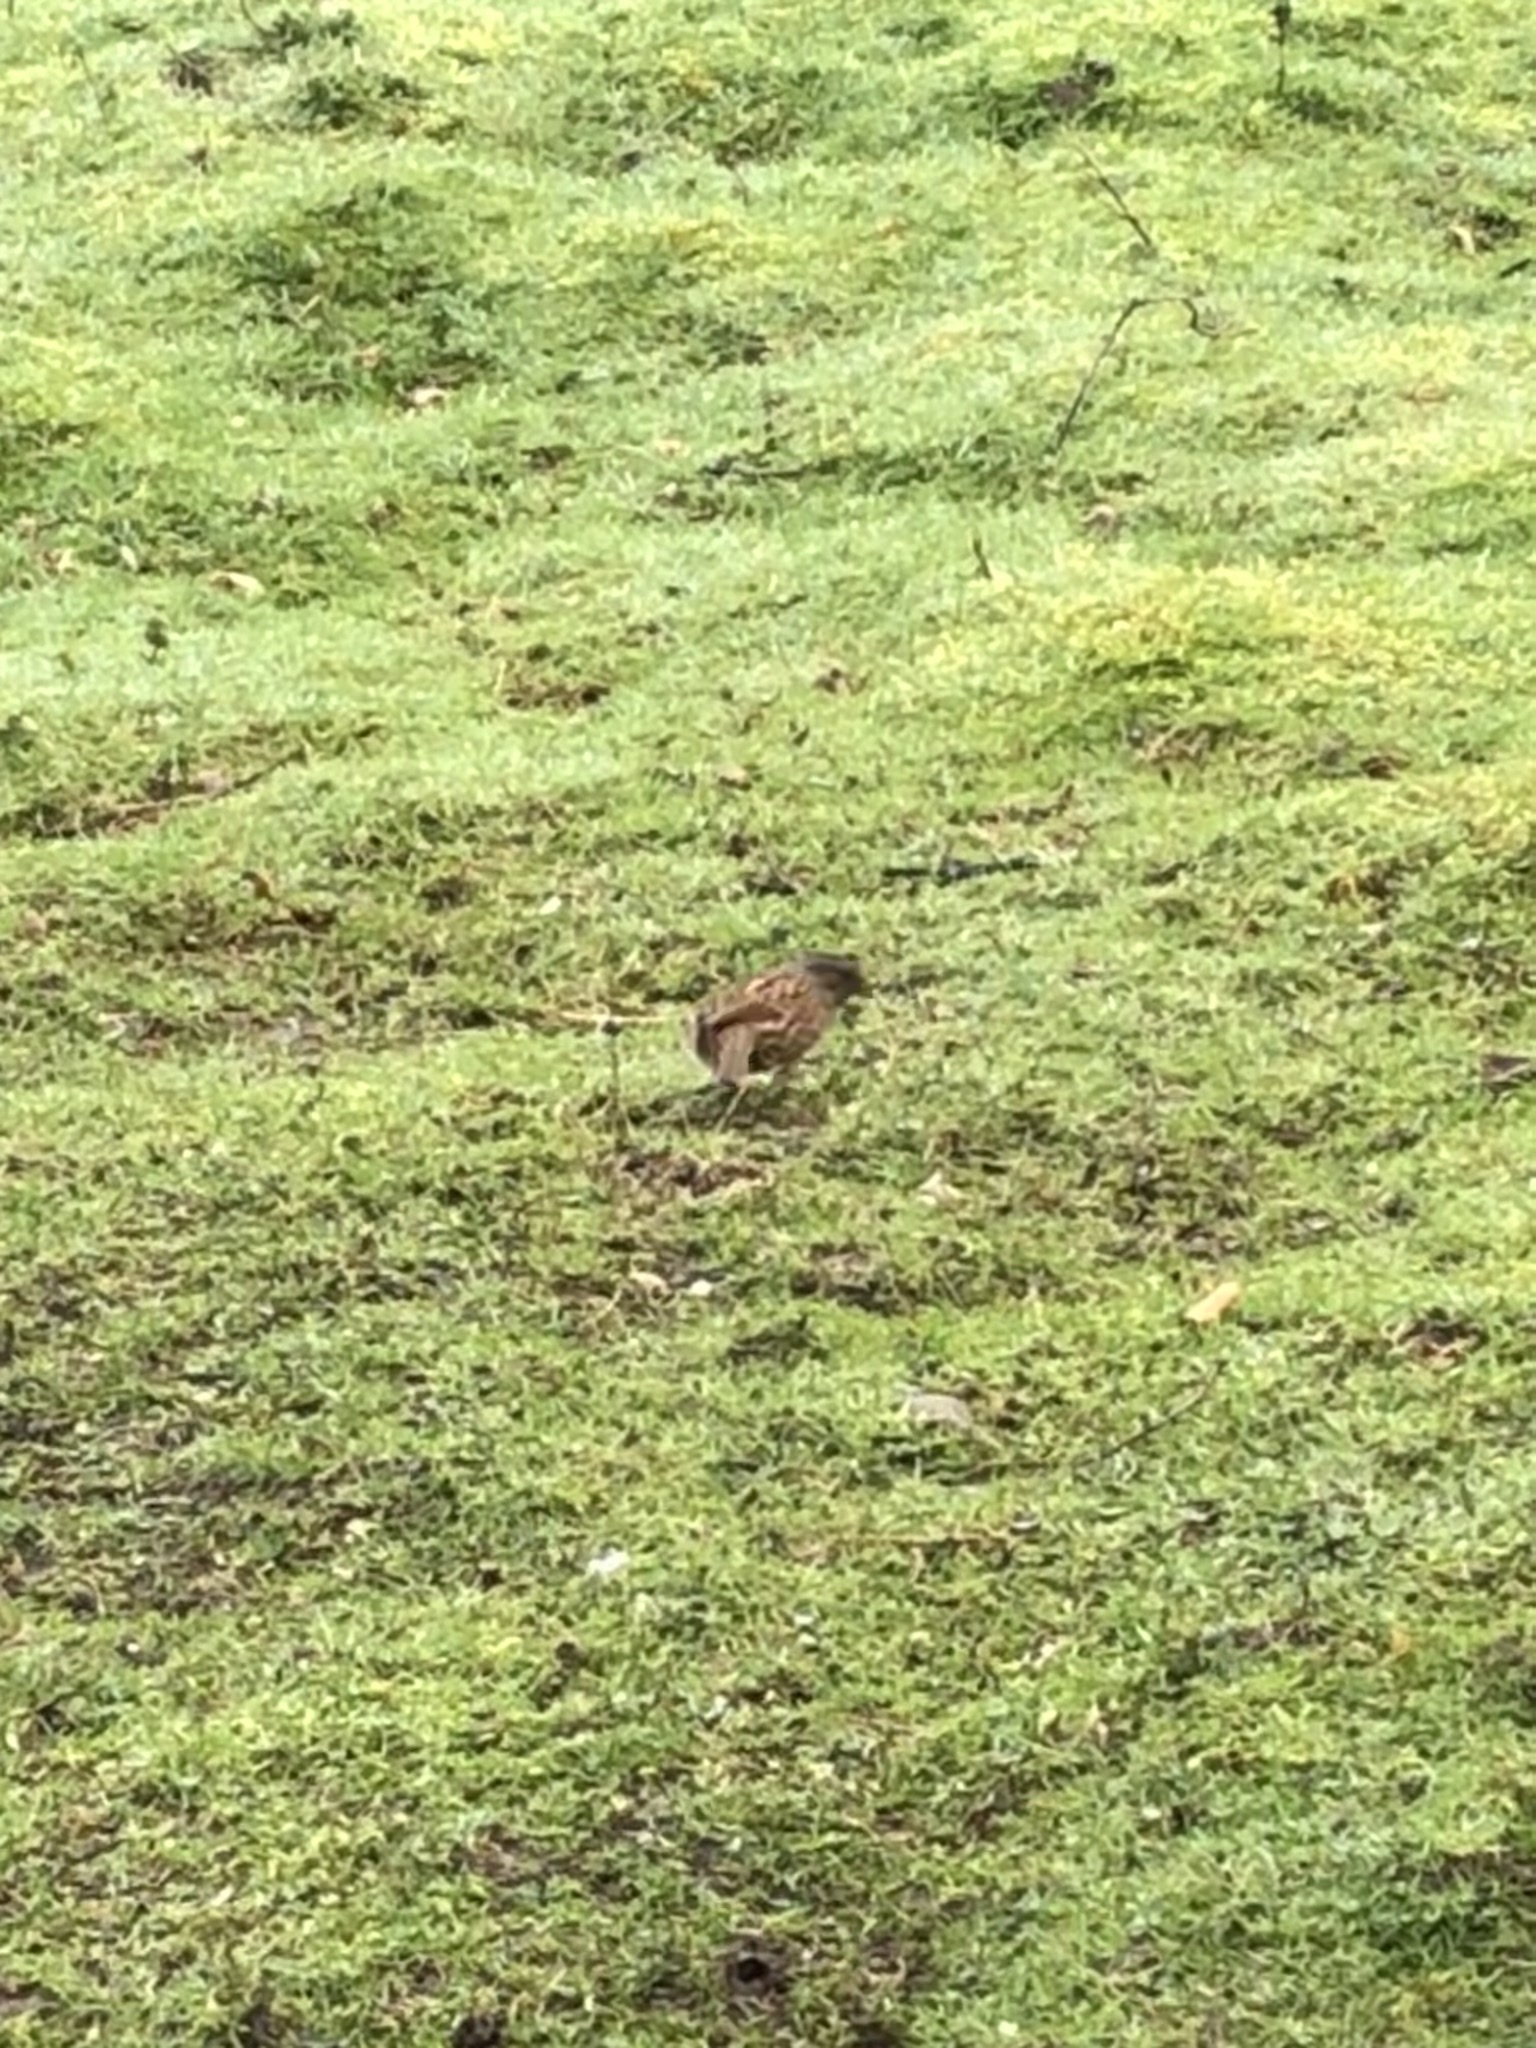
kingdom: Animalia
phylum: Chordata
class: Aves
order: Passeriformes
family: Prunellidae
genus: Prunella
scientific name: Prunella modularis
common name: Dunnock
